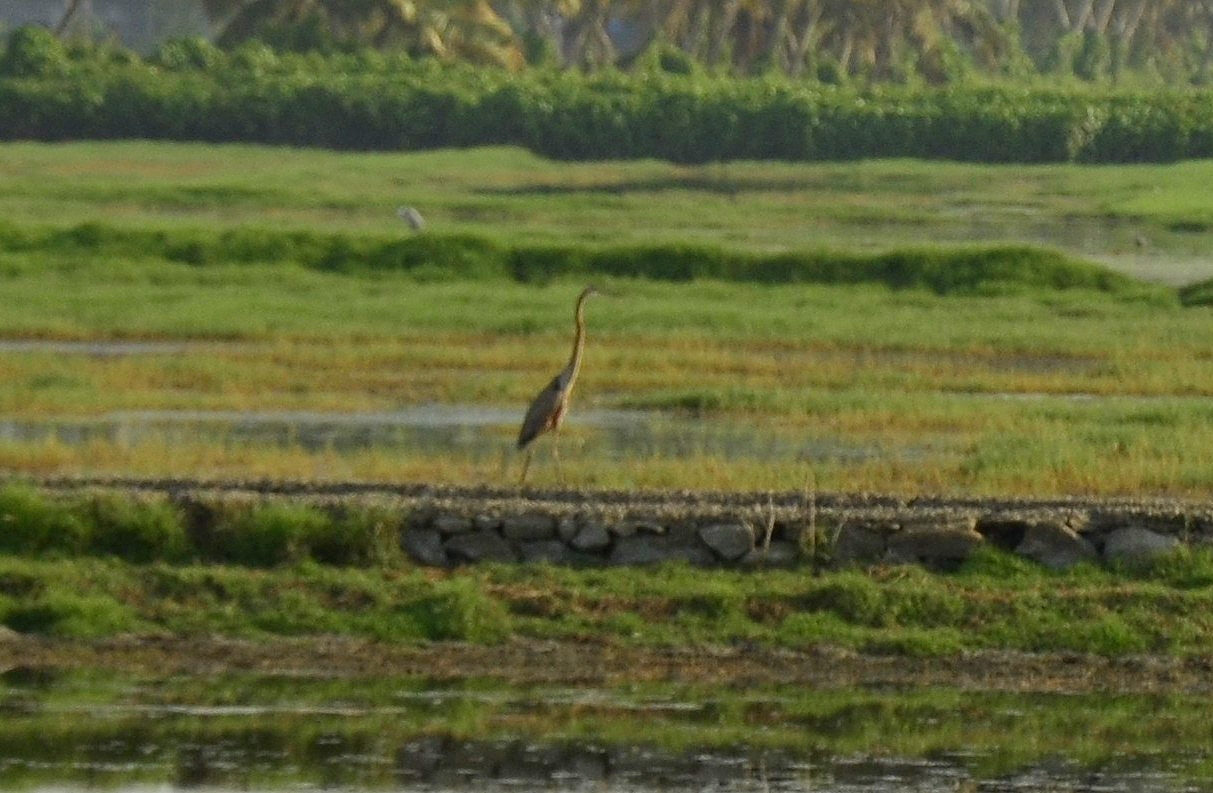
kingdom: Animalia
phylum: Chordata
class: Aves
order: Pelecaniformes
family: Ardeidae
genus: Ardea
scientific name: Ardea purpurea
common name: Purple heron
